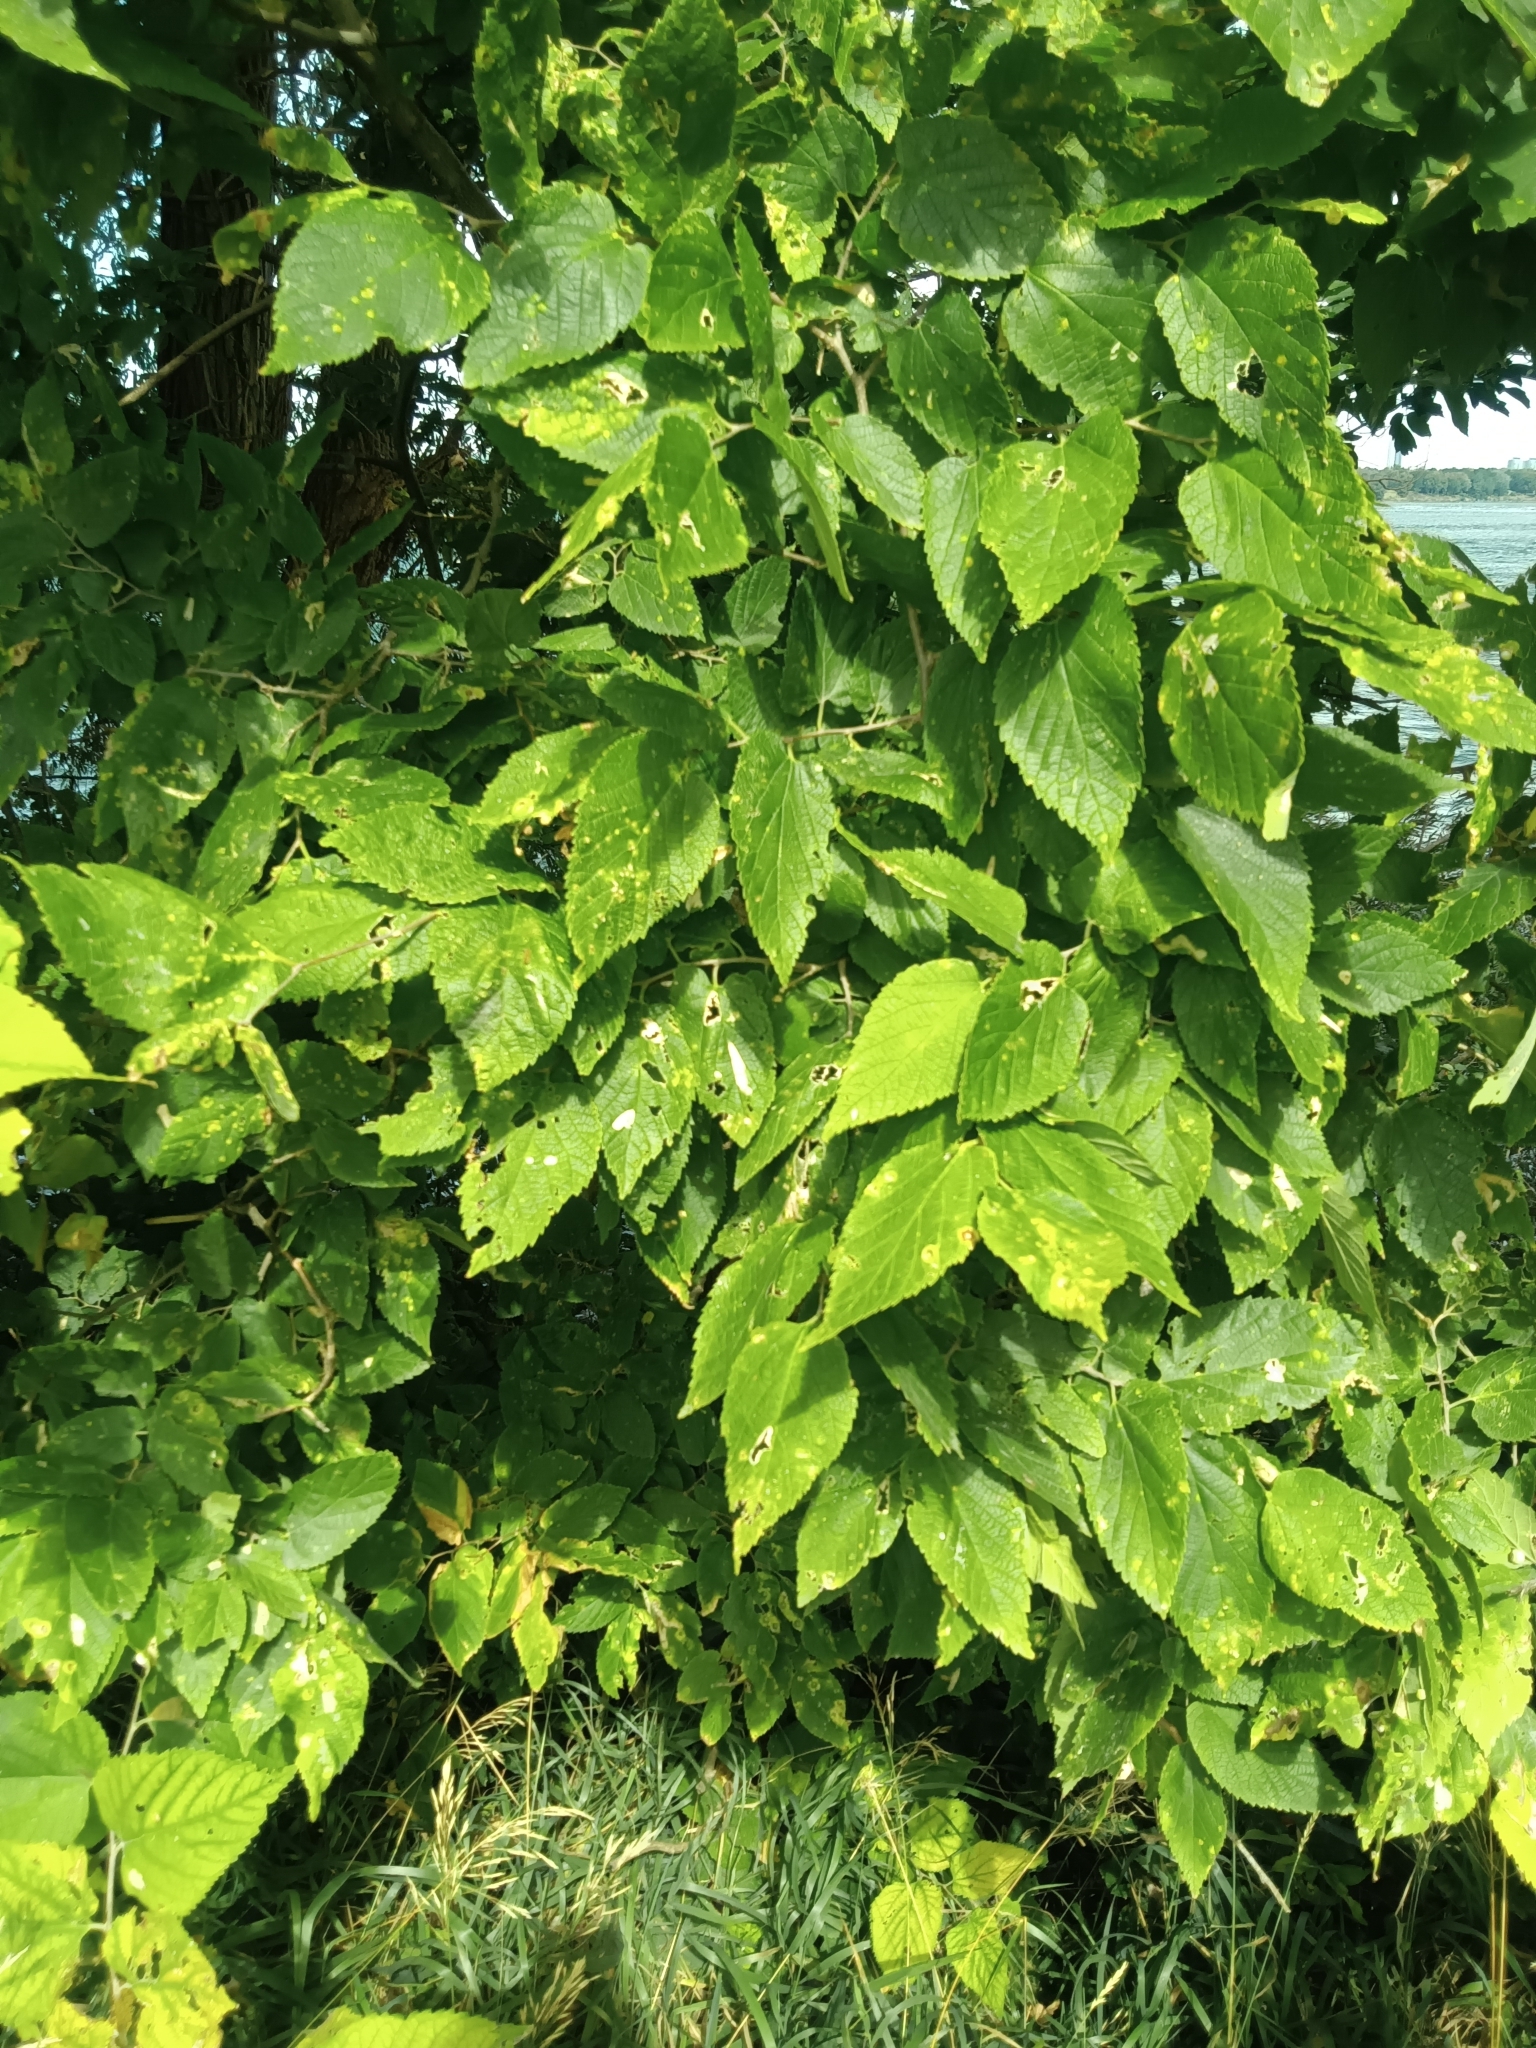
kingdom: Plantae
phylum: Tracheophyta
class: Magnoliopsida
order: Rosales
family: Cannabaceae
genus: Celtis
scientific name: Celtis occidentalis
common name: Common hackberry
